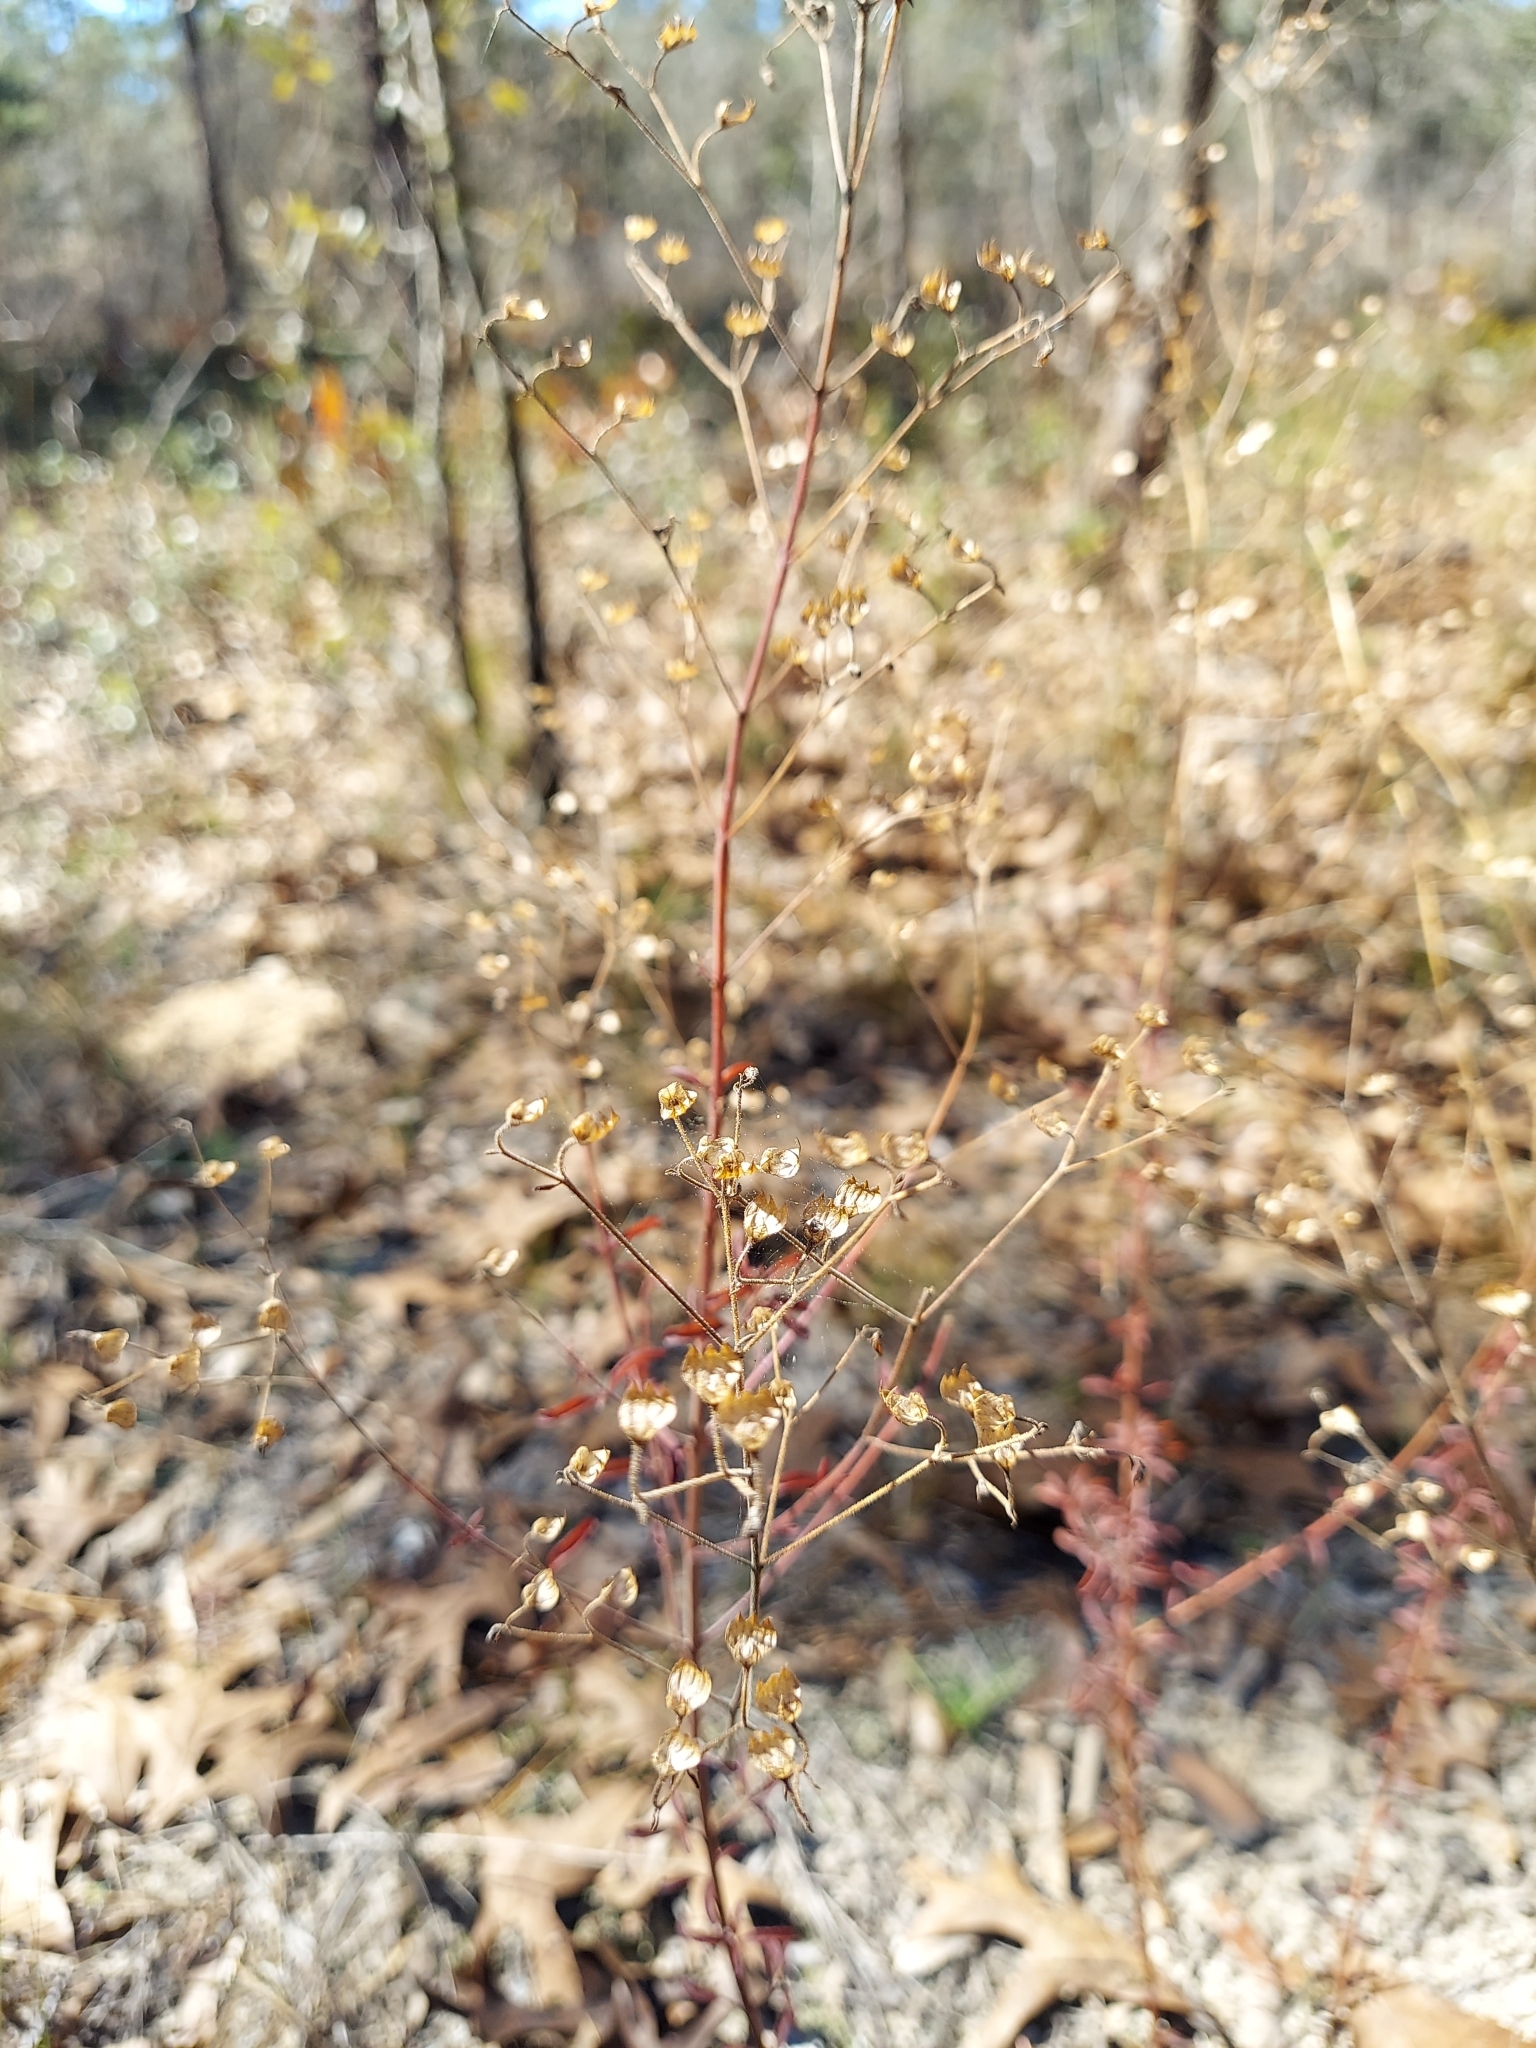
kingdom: Plantae
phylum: Tracheophyta
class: Magnoliopsida
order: Lamiales
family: Lamiaceae
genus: Trichostema
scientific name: Trichostema microphyllum
